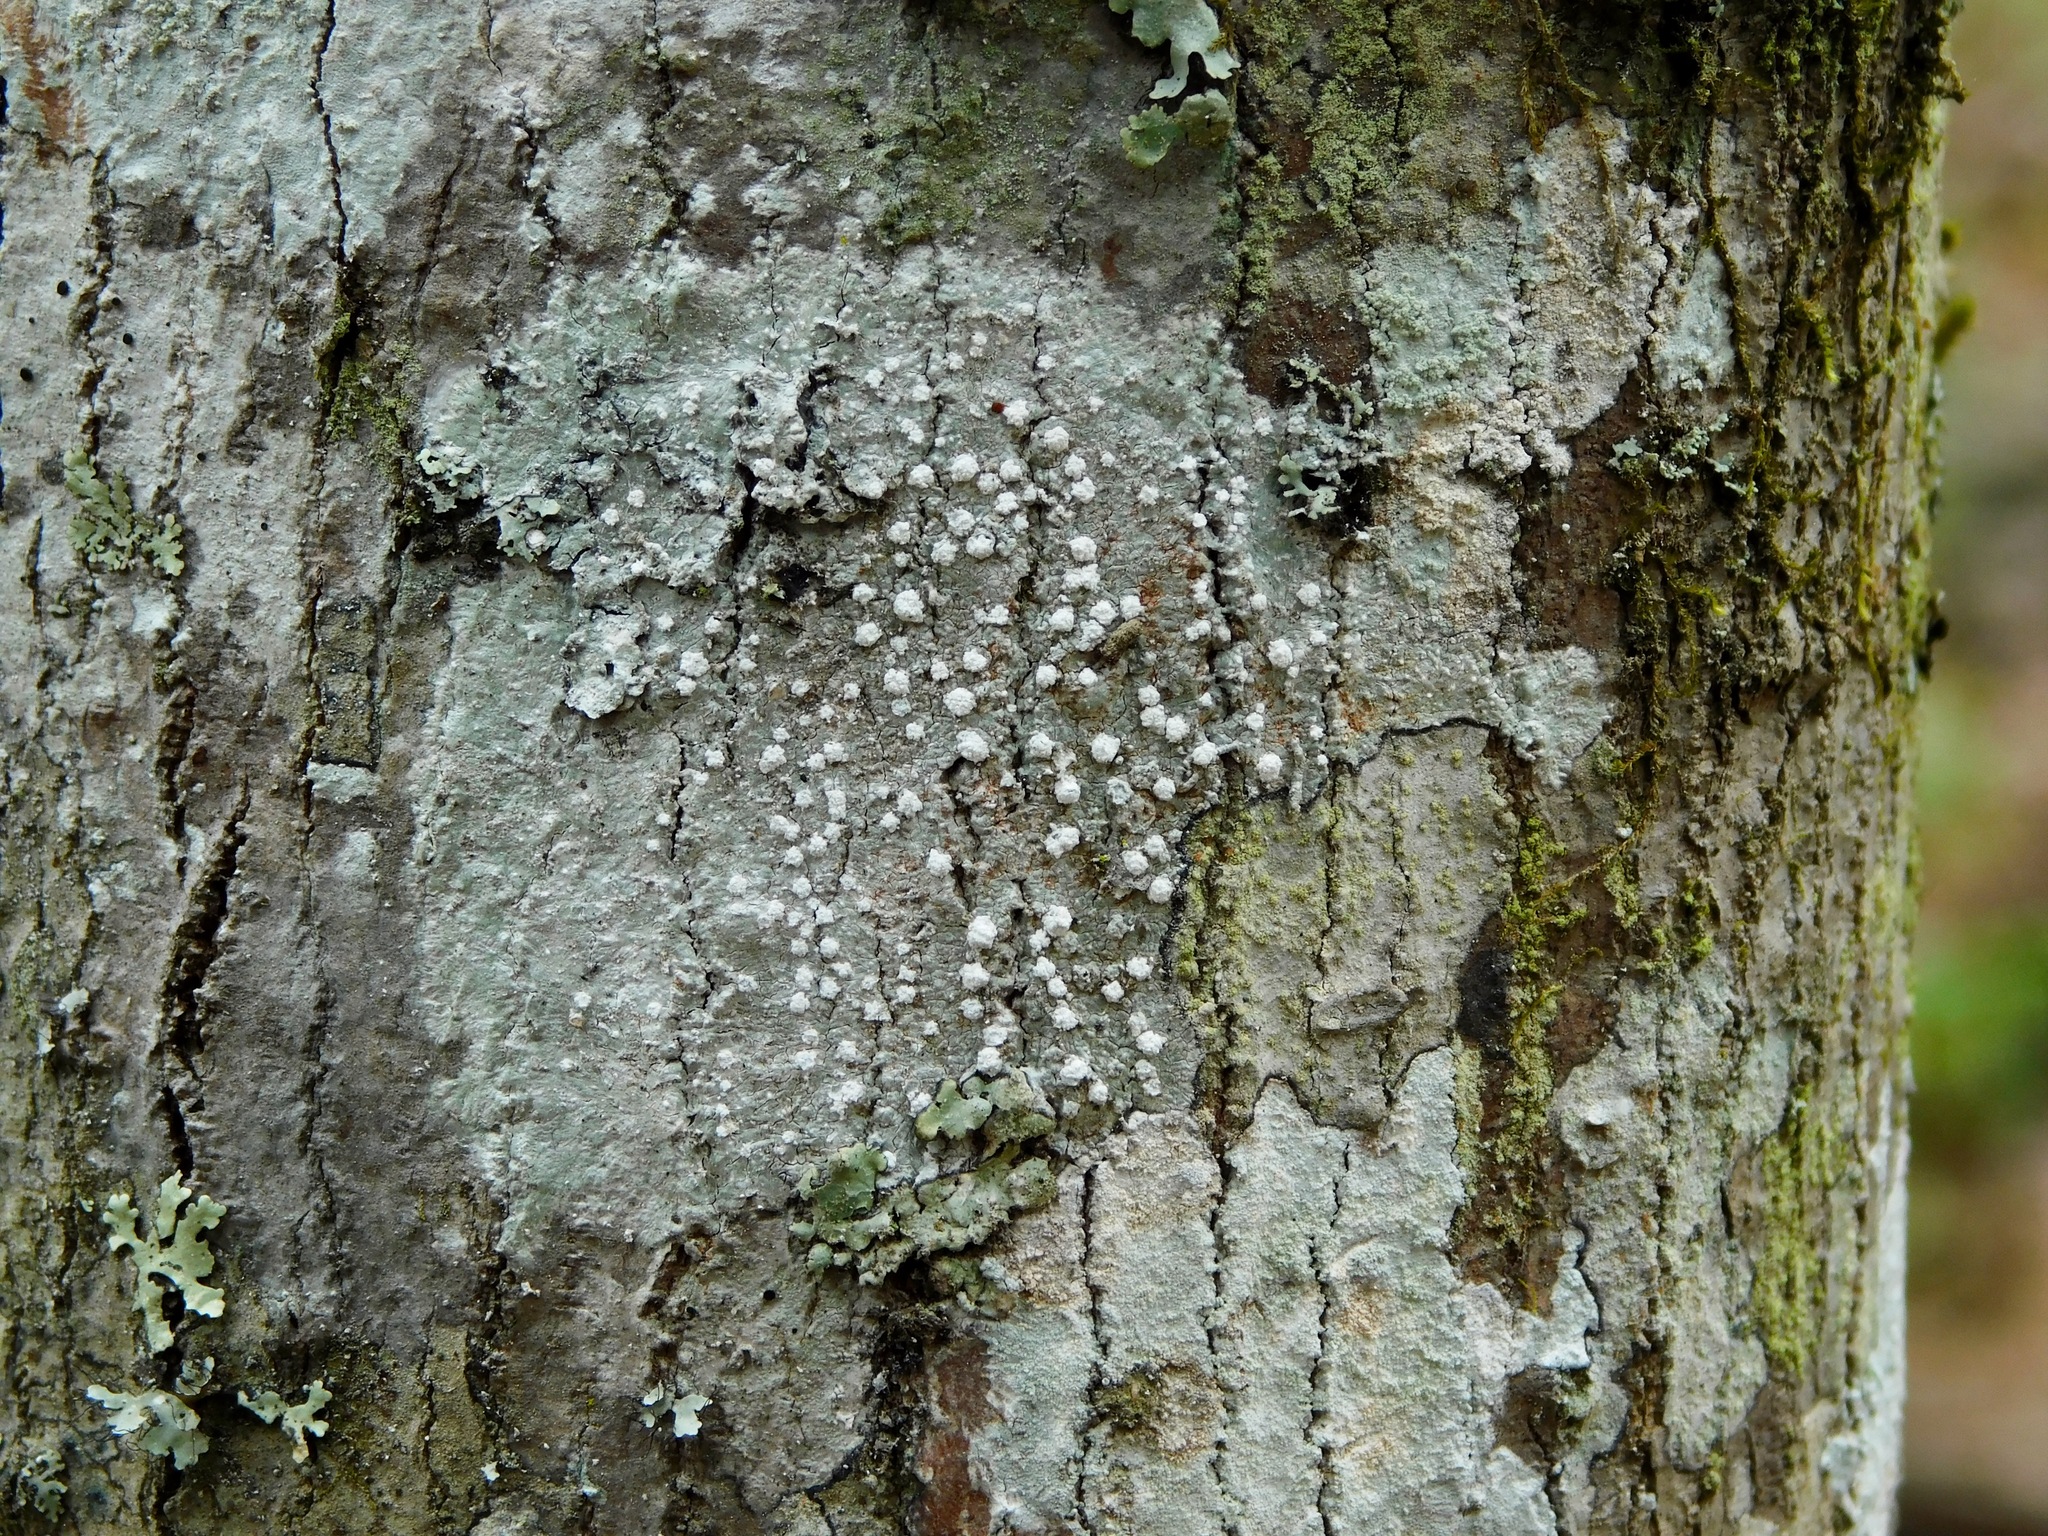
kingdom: Fungi
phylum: Ascomycota
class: Lecanoromycetes
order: Pertusariales
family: Pertusariaceae
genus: Lepra
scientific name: Lepra amara
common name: Bitter wart lichen
